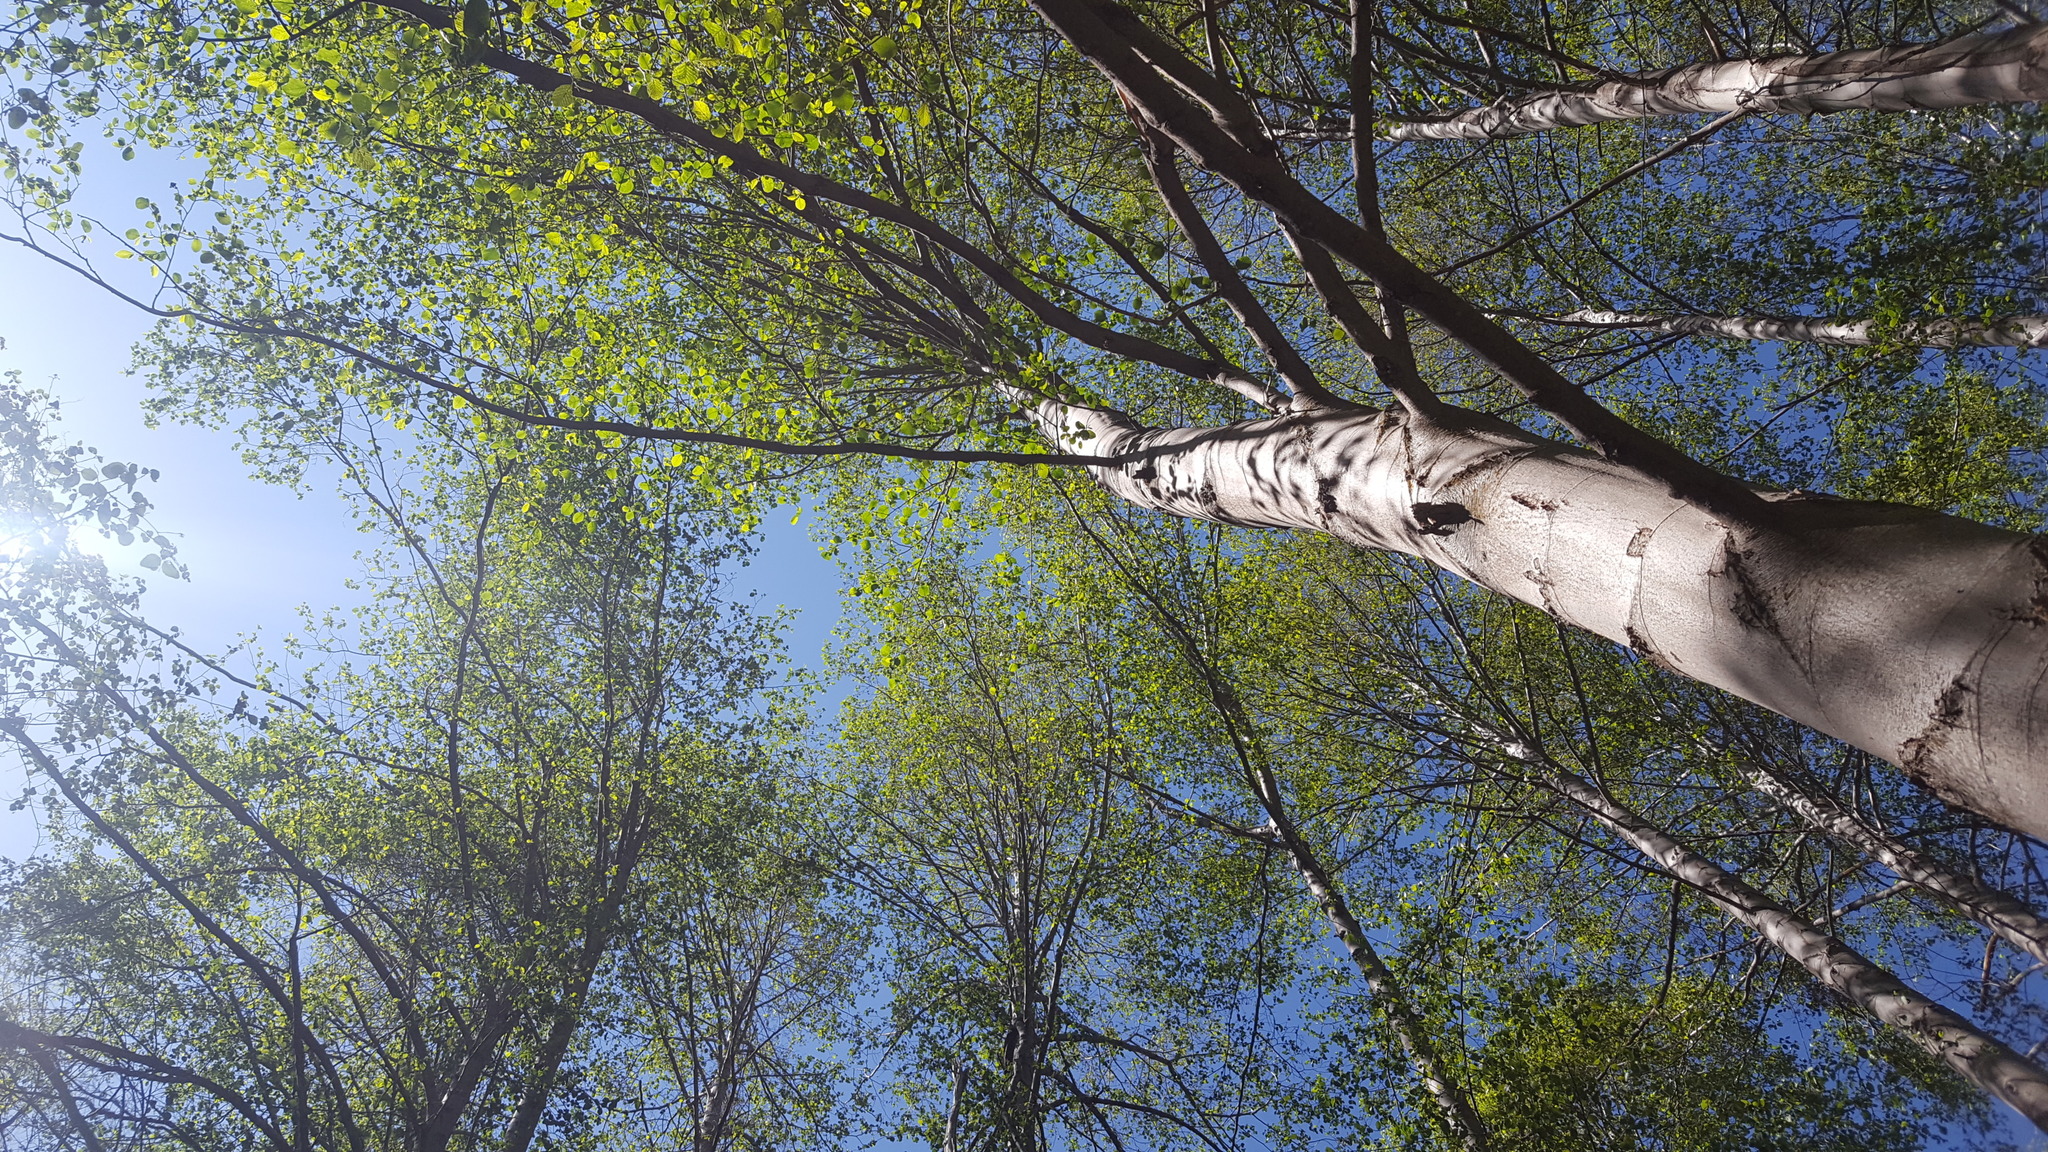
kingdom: Plantae
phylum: Tracheophyta
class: Magnoliopsida
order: Fagales
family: Betulaceae
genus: Alnus
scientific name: Alnus rhombifolia
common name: California alder
